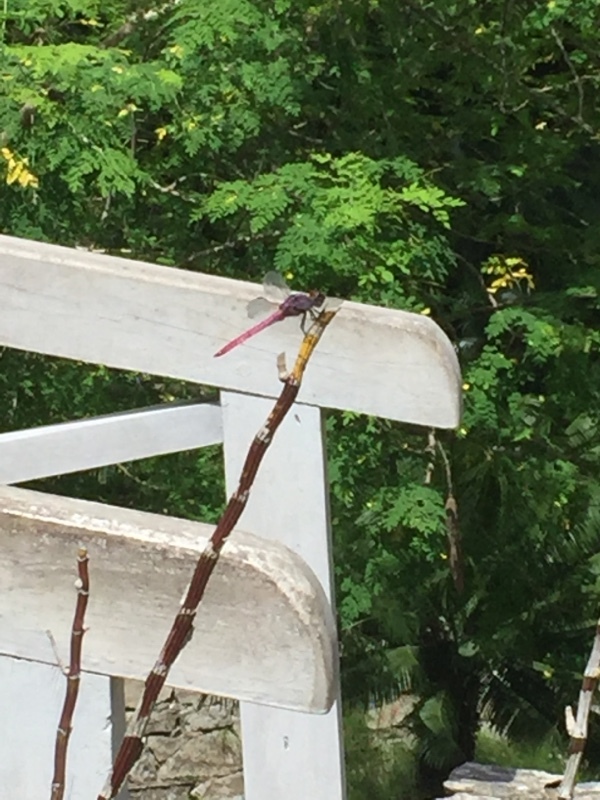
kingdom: Animalia
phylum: Arthropoda
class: Insecta
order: Odonata
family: Libellulidae
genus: Orthemis
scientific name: Orthemis ferruginea
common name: Roseate skimmer
